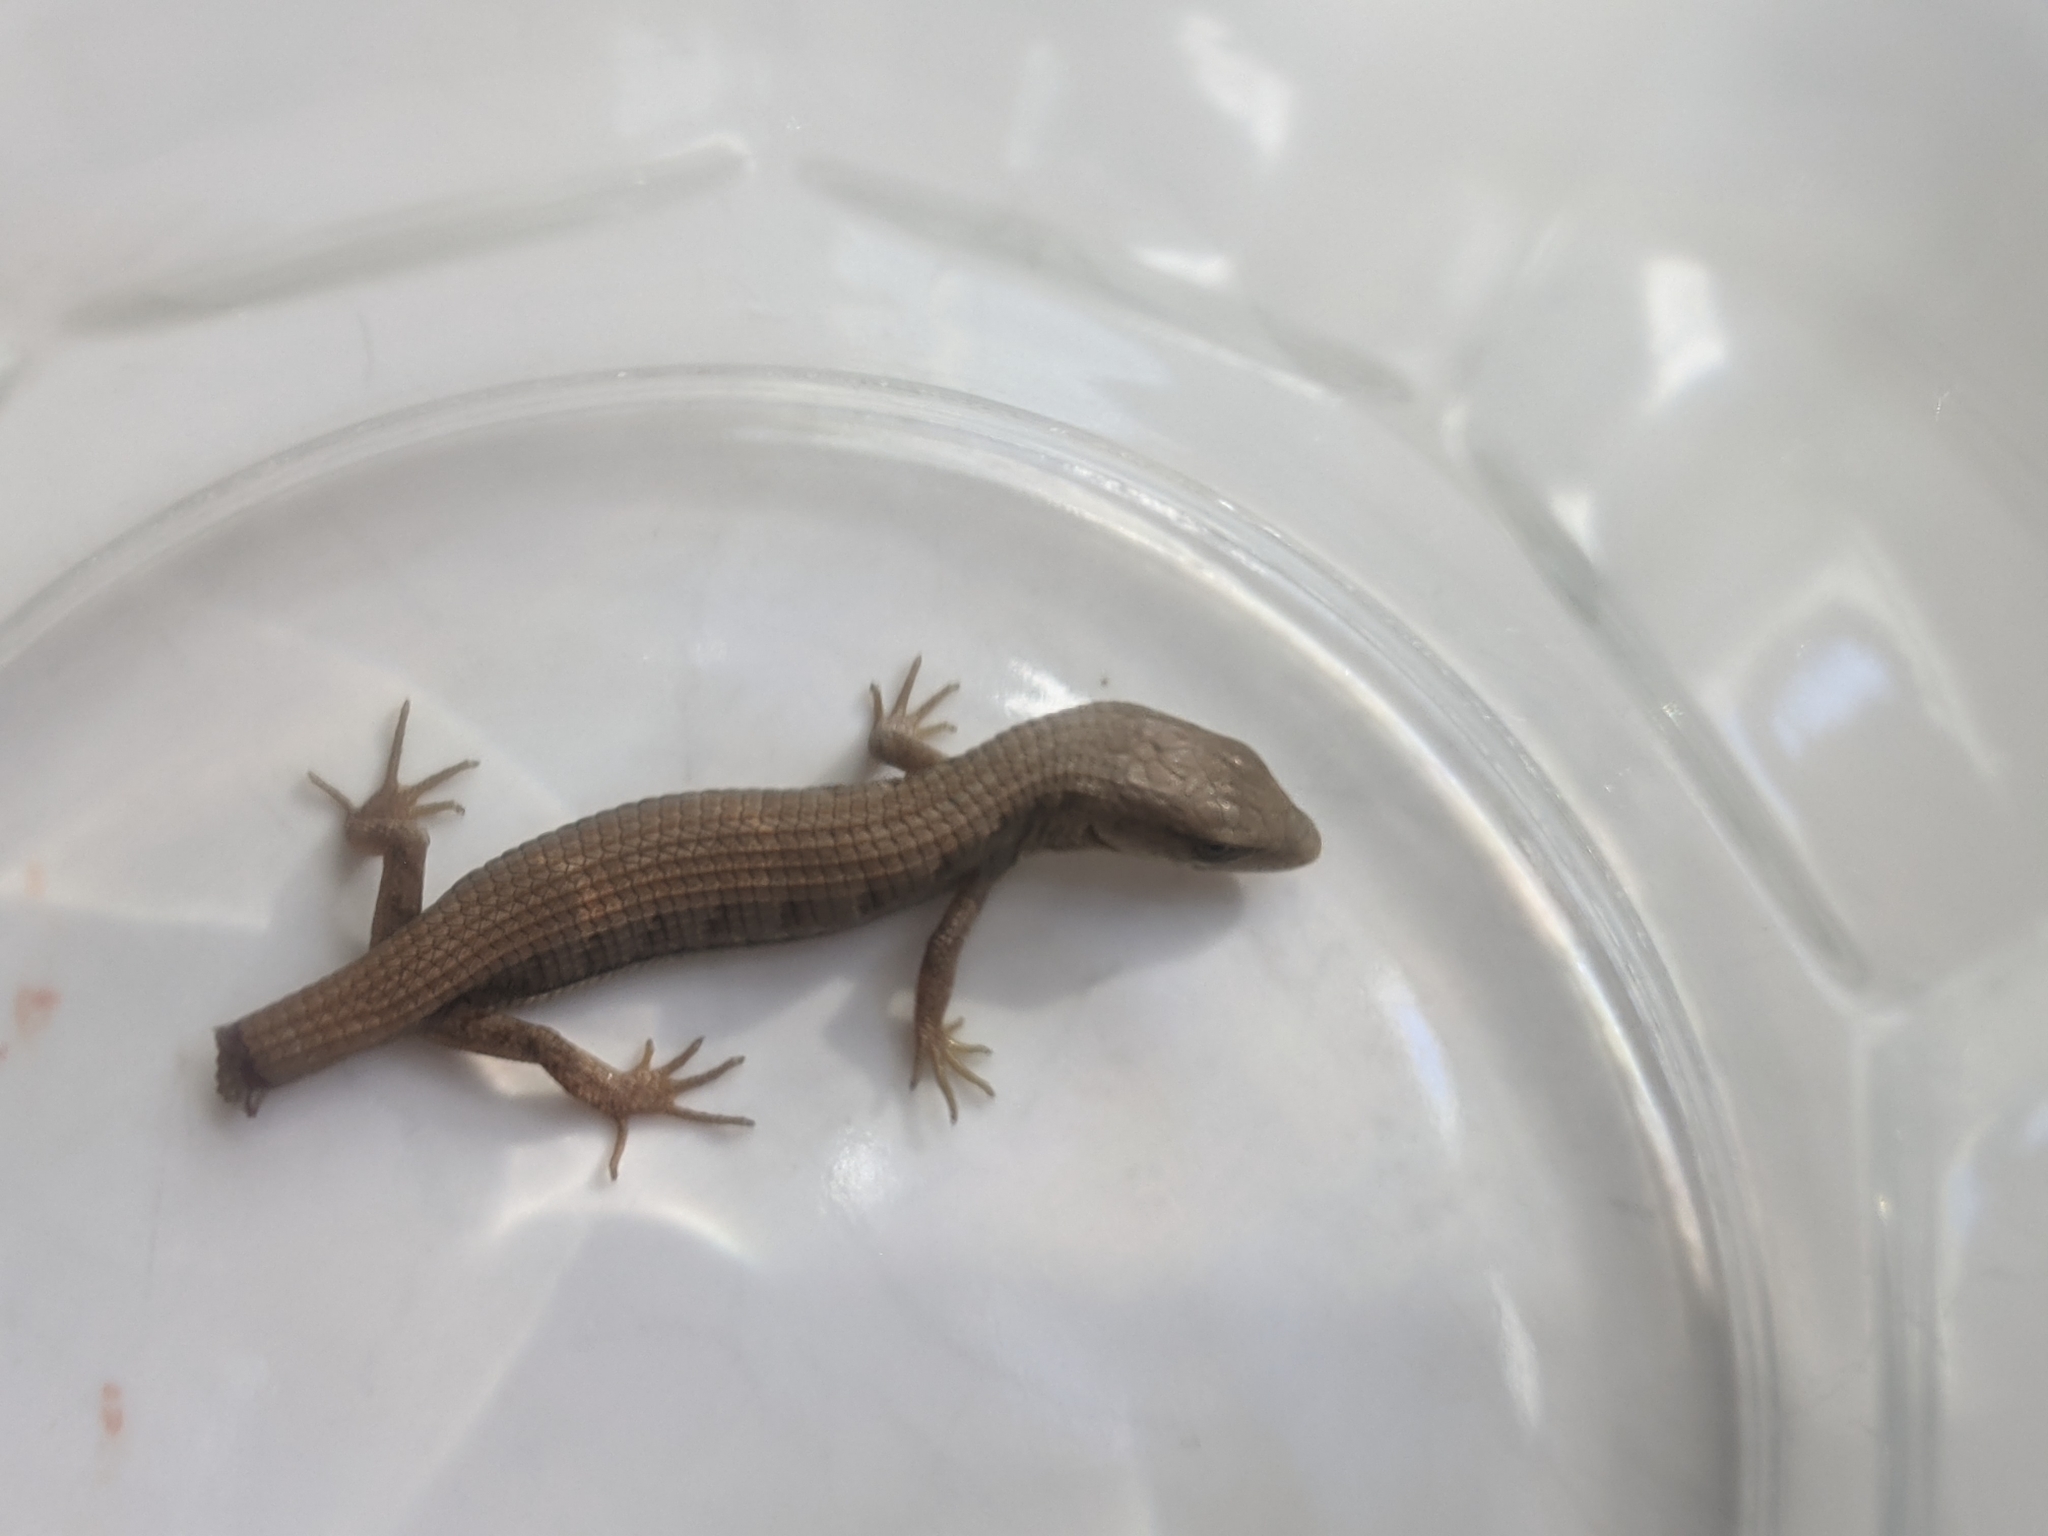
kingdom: Animalia
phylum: Chordata
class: Squamata
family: Anguidae
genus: Elgaria
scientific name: Elgaria multicarinata
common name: Southern alligator lizard
